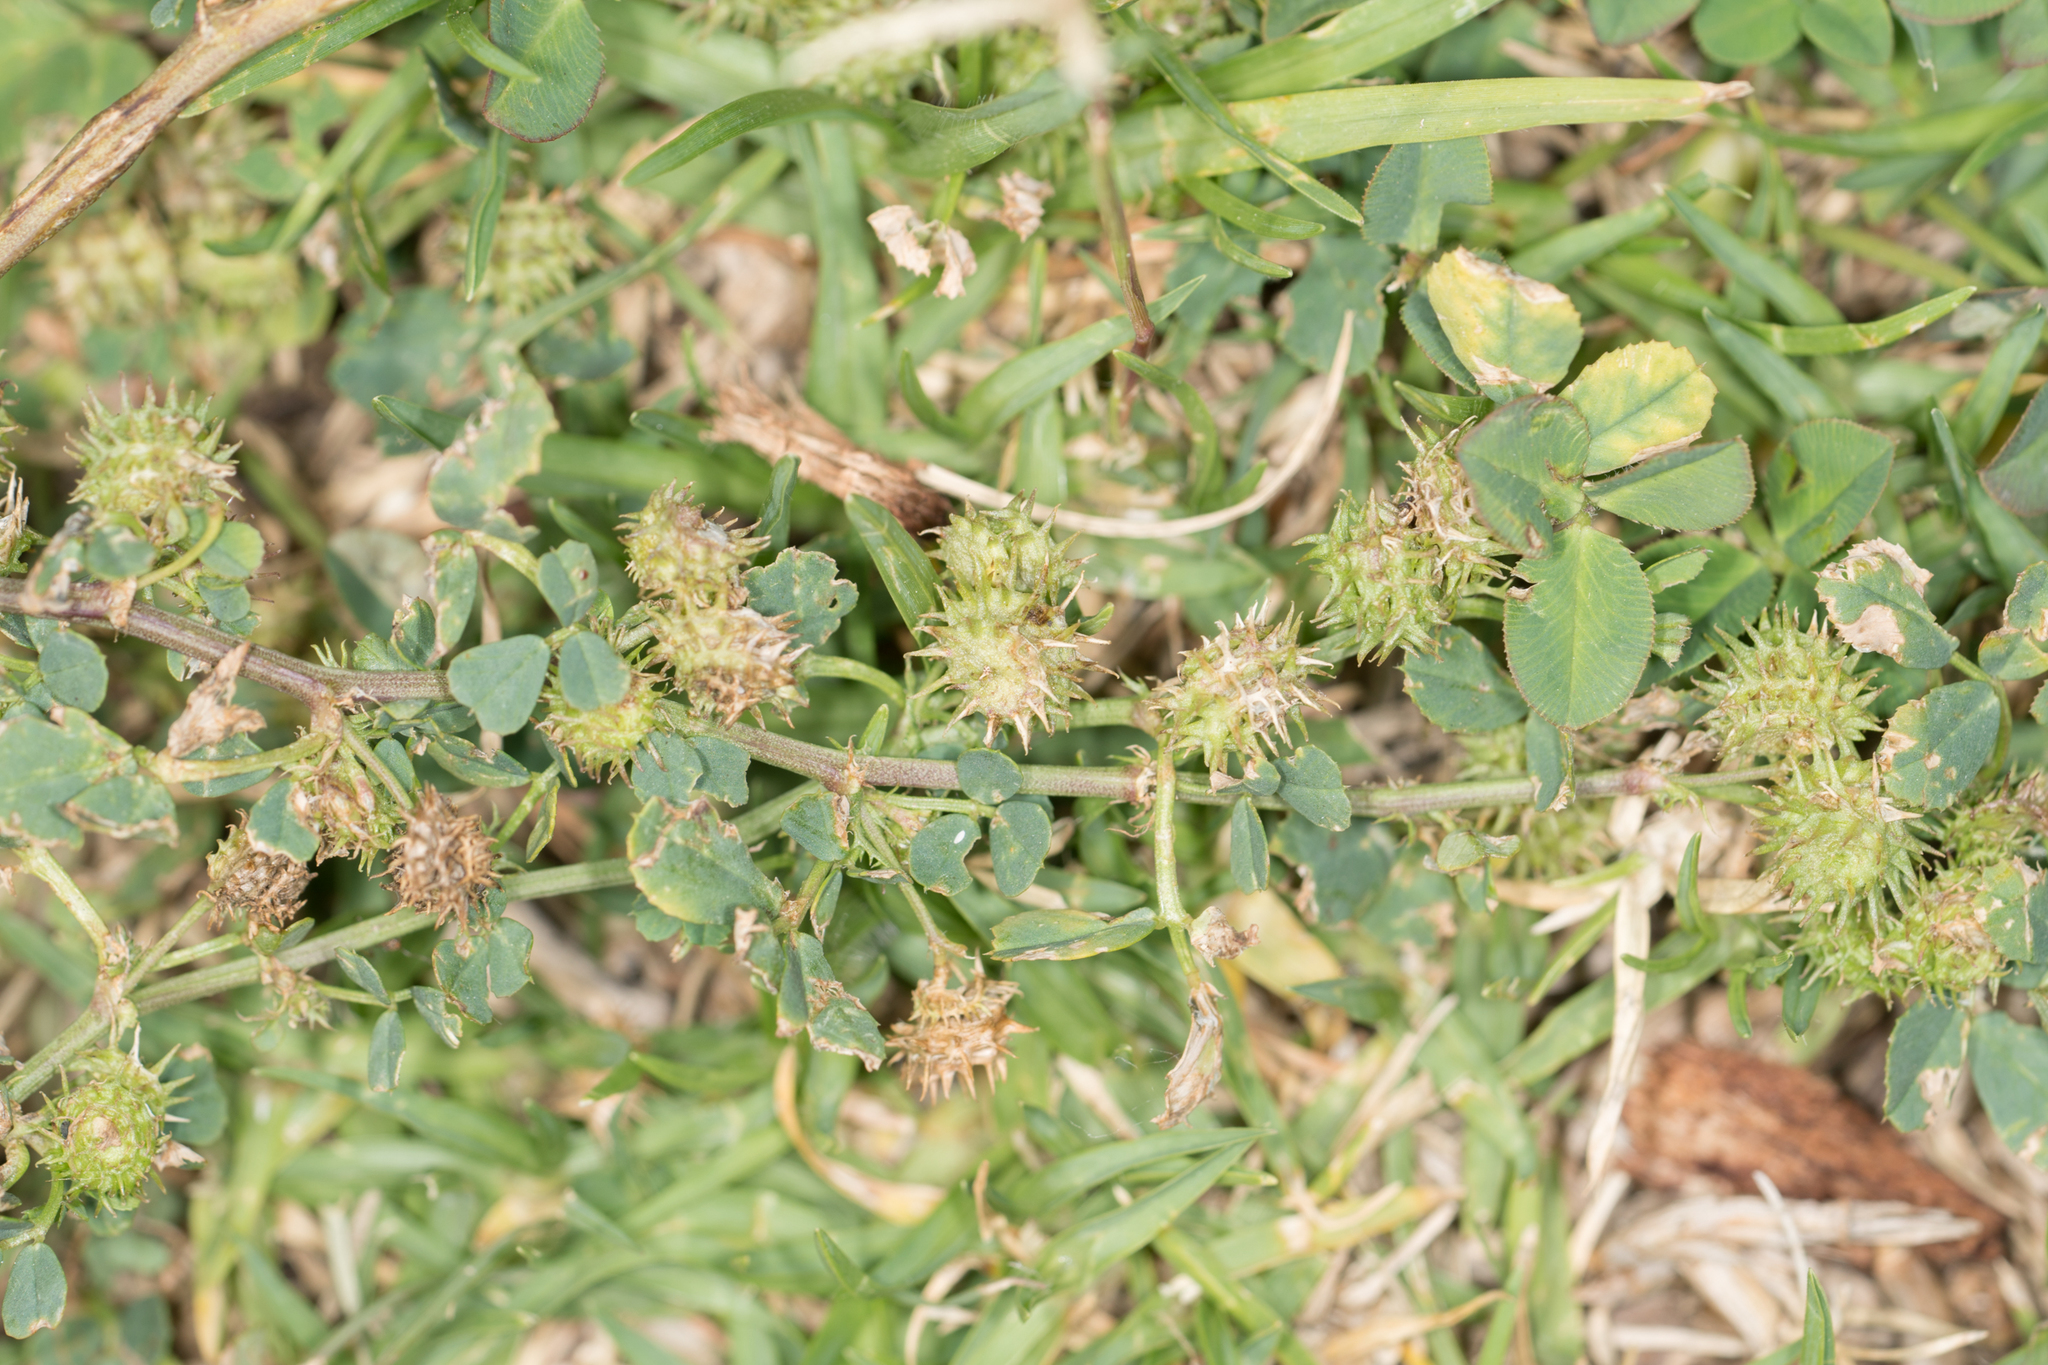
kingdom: Plantae
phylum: Tracheophyta
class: Magnoliopsida
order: Fabales
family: Fabaceae
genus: Medicago
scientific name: Medicago polymorpha
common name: Burclover
